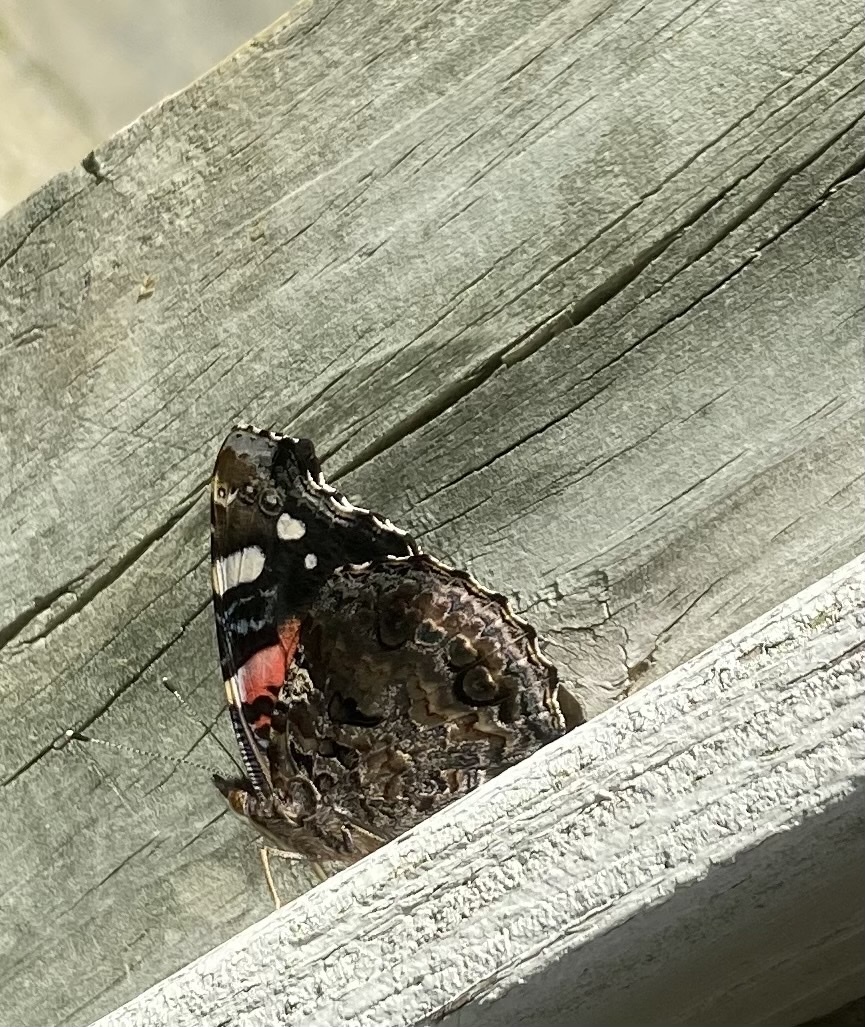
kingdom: Animalia
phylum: Arthropoda
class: Insecta
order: Lepidoptera
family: Nymphalidae
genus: Vanessa
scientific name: Vanessa atalanta
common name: Red admiral
